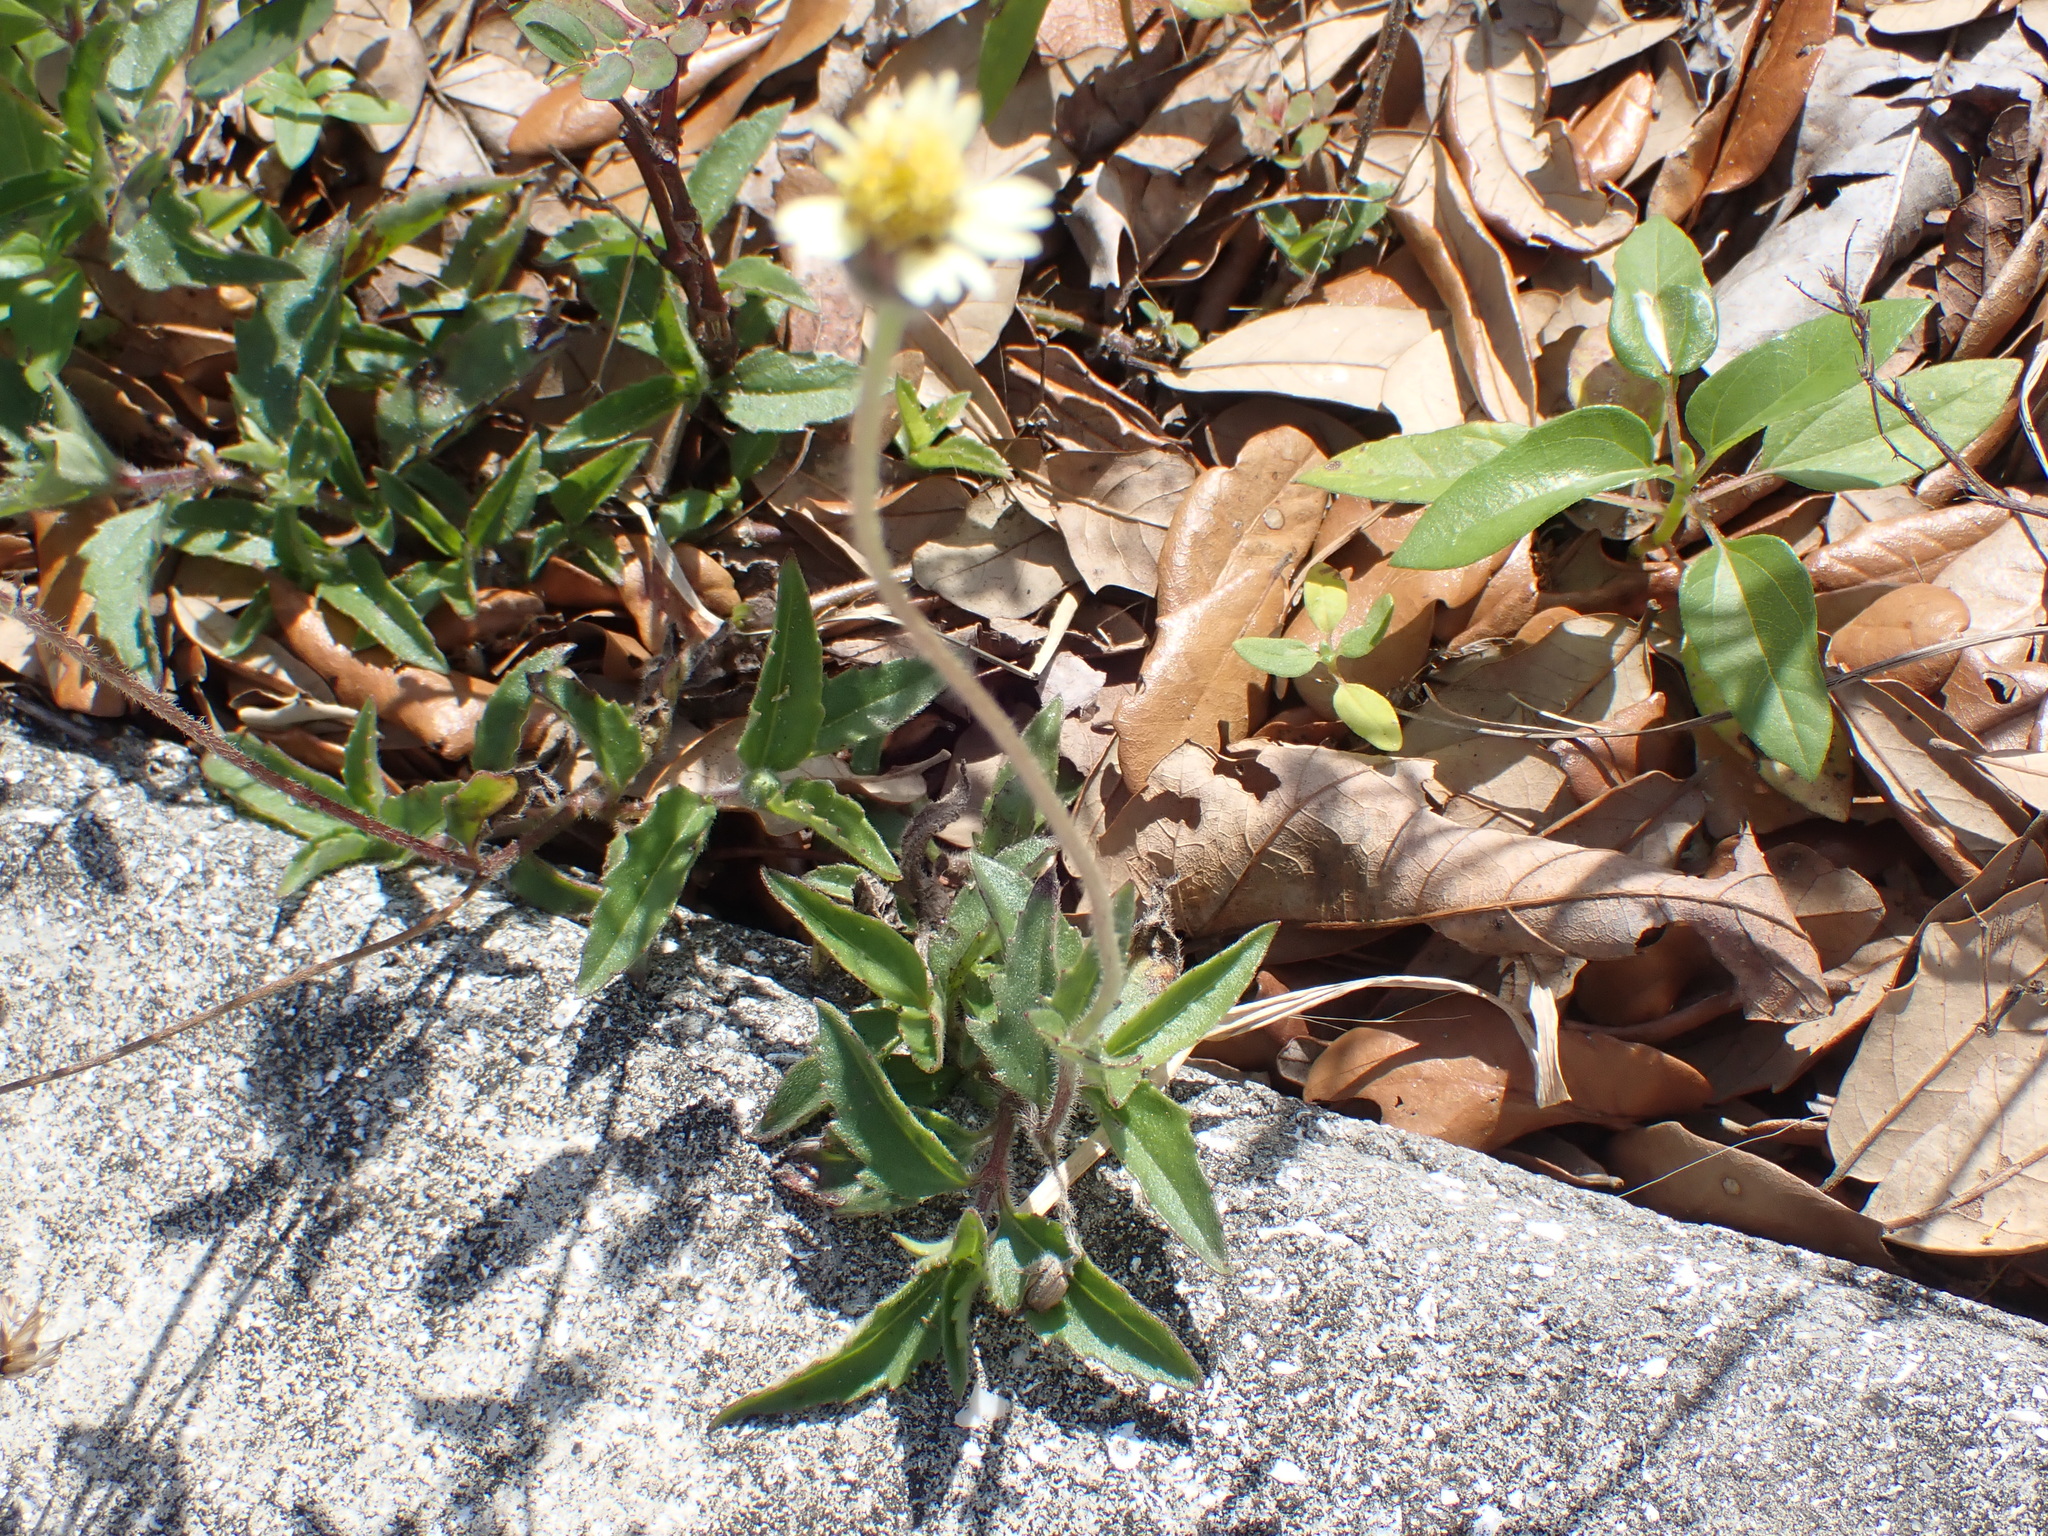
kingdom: Plantae
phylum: Tracheophyta
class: Magnoliopsida
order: Asterales
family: Asteraceae
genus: Tridax
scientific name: Tridax procumbens
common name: Coatbuttons
